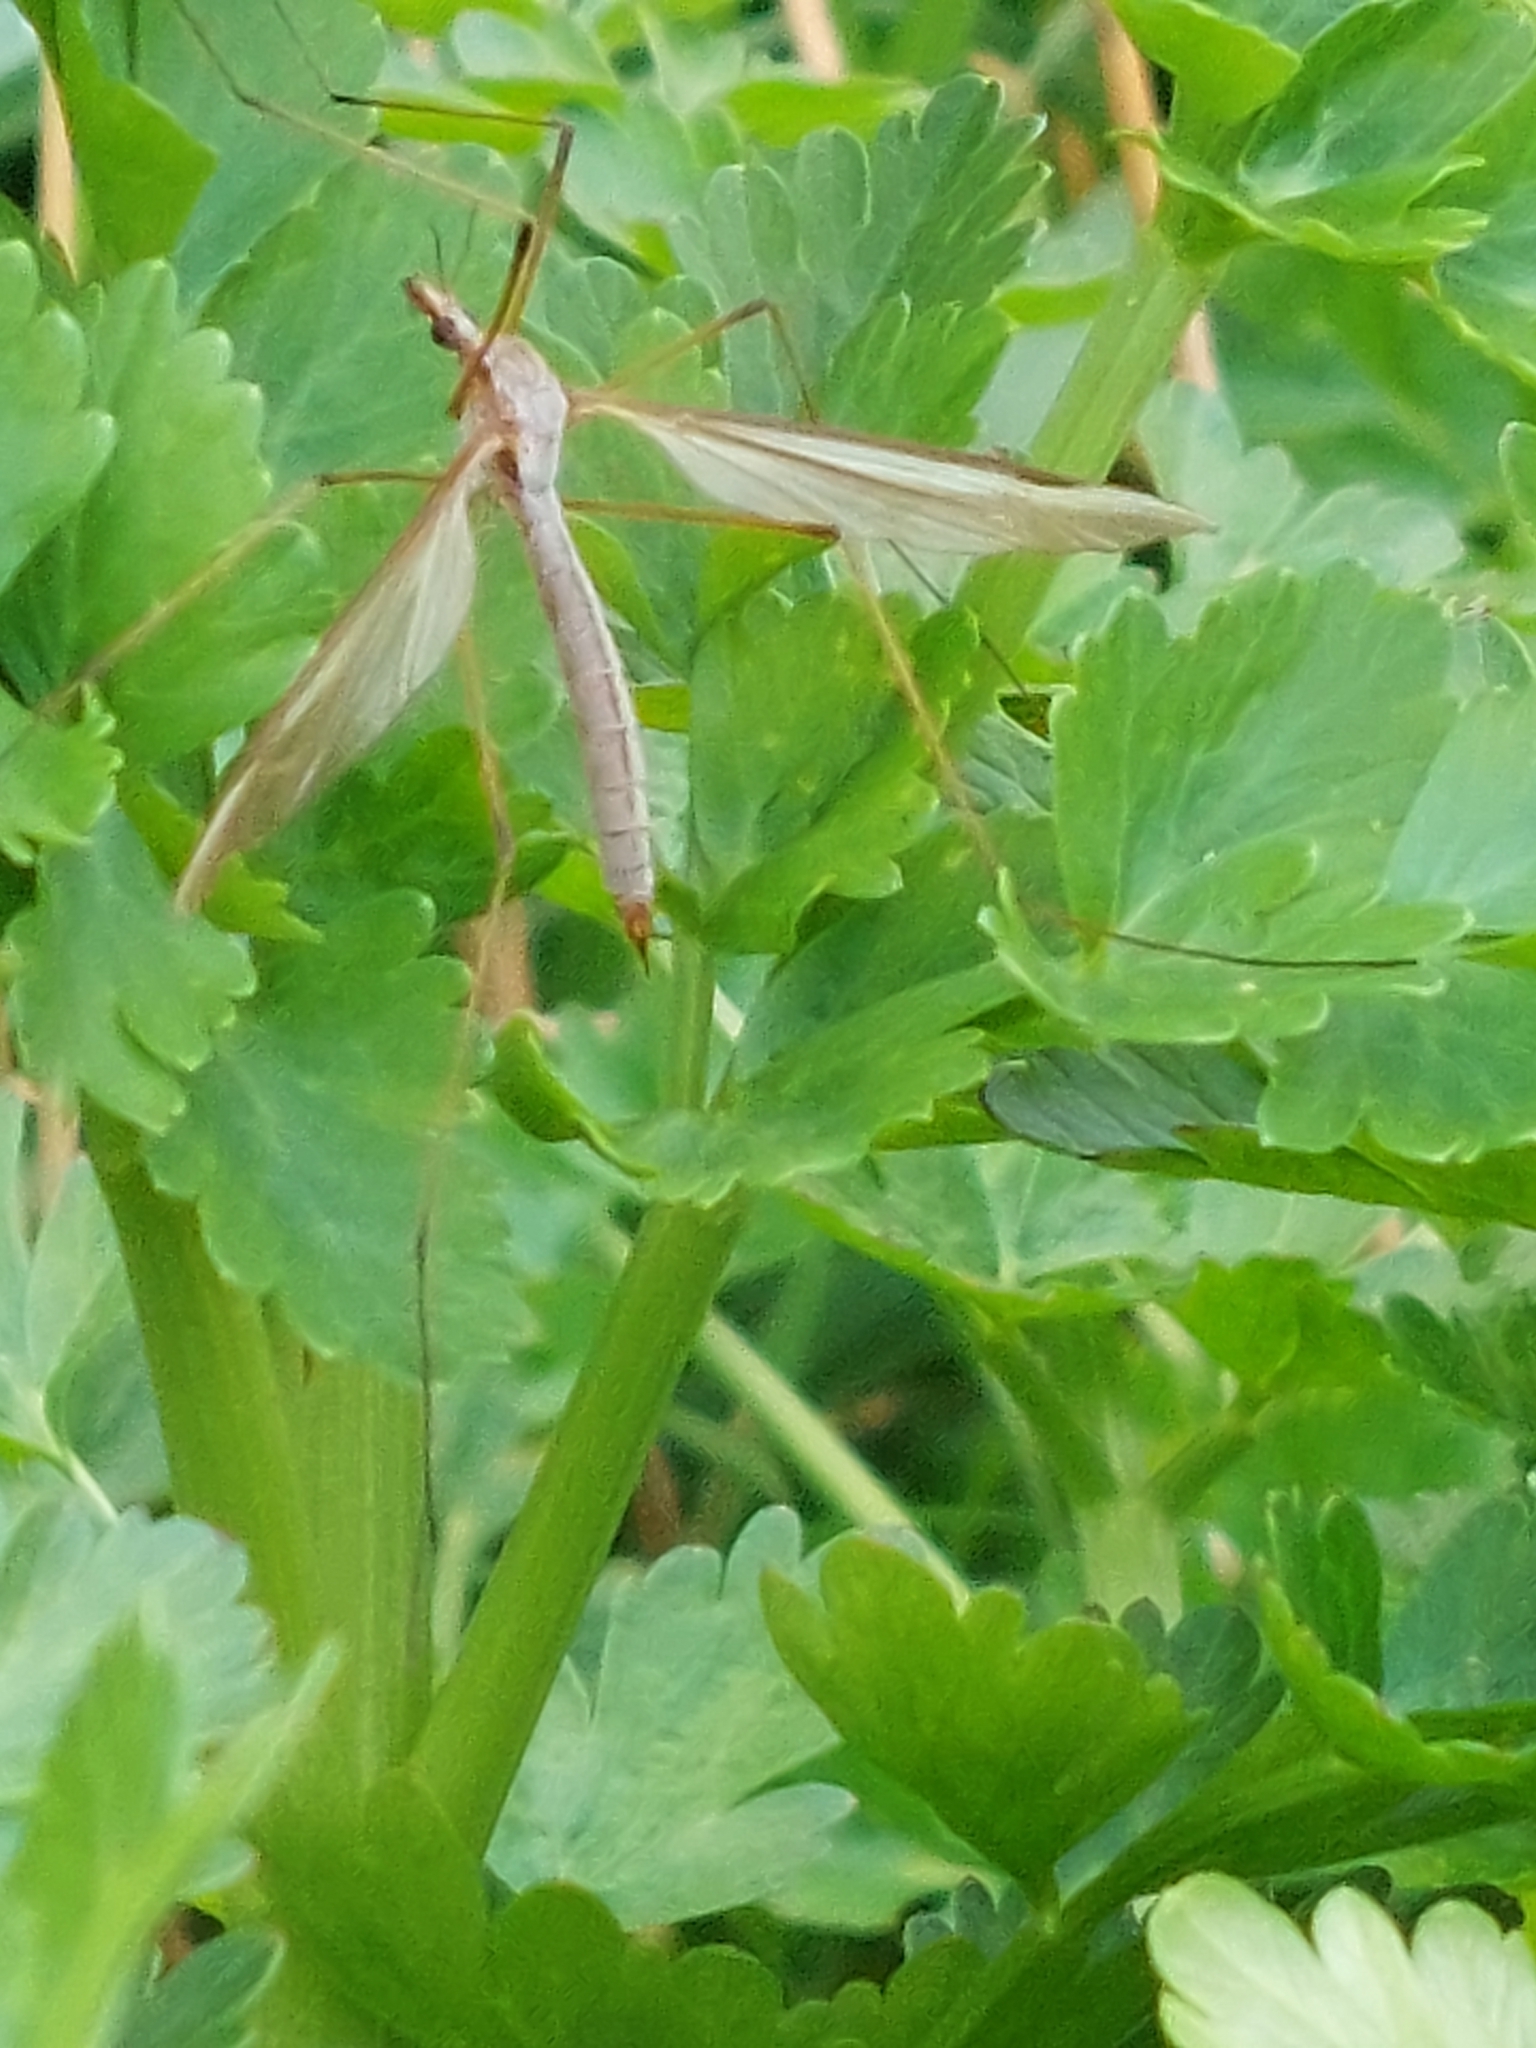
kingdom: Animalia
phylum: Arthropoda
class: Insecta
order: Diptera
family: Tipulidae
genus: Tipula
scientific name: Tipula oleracea
